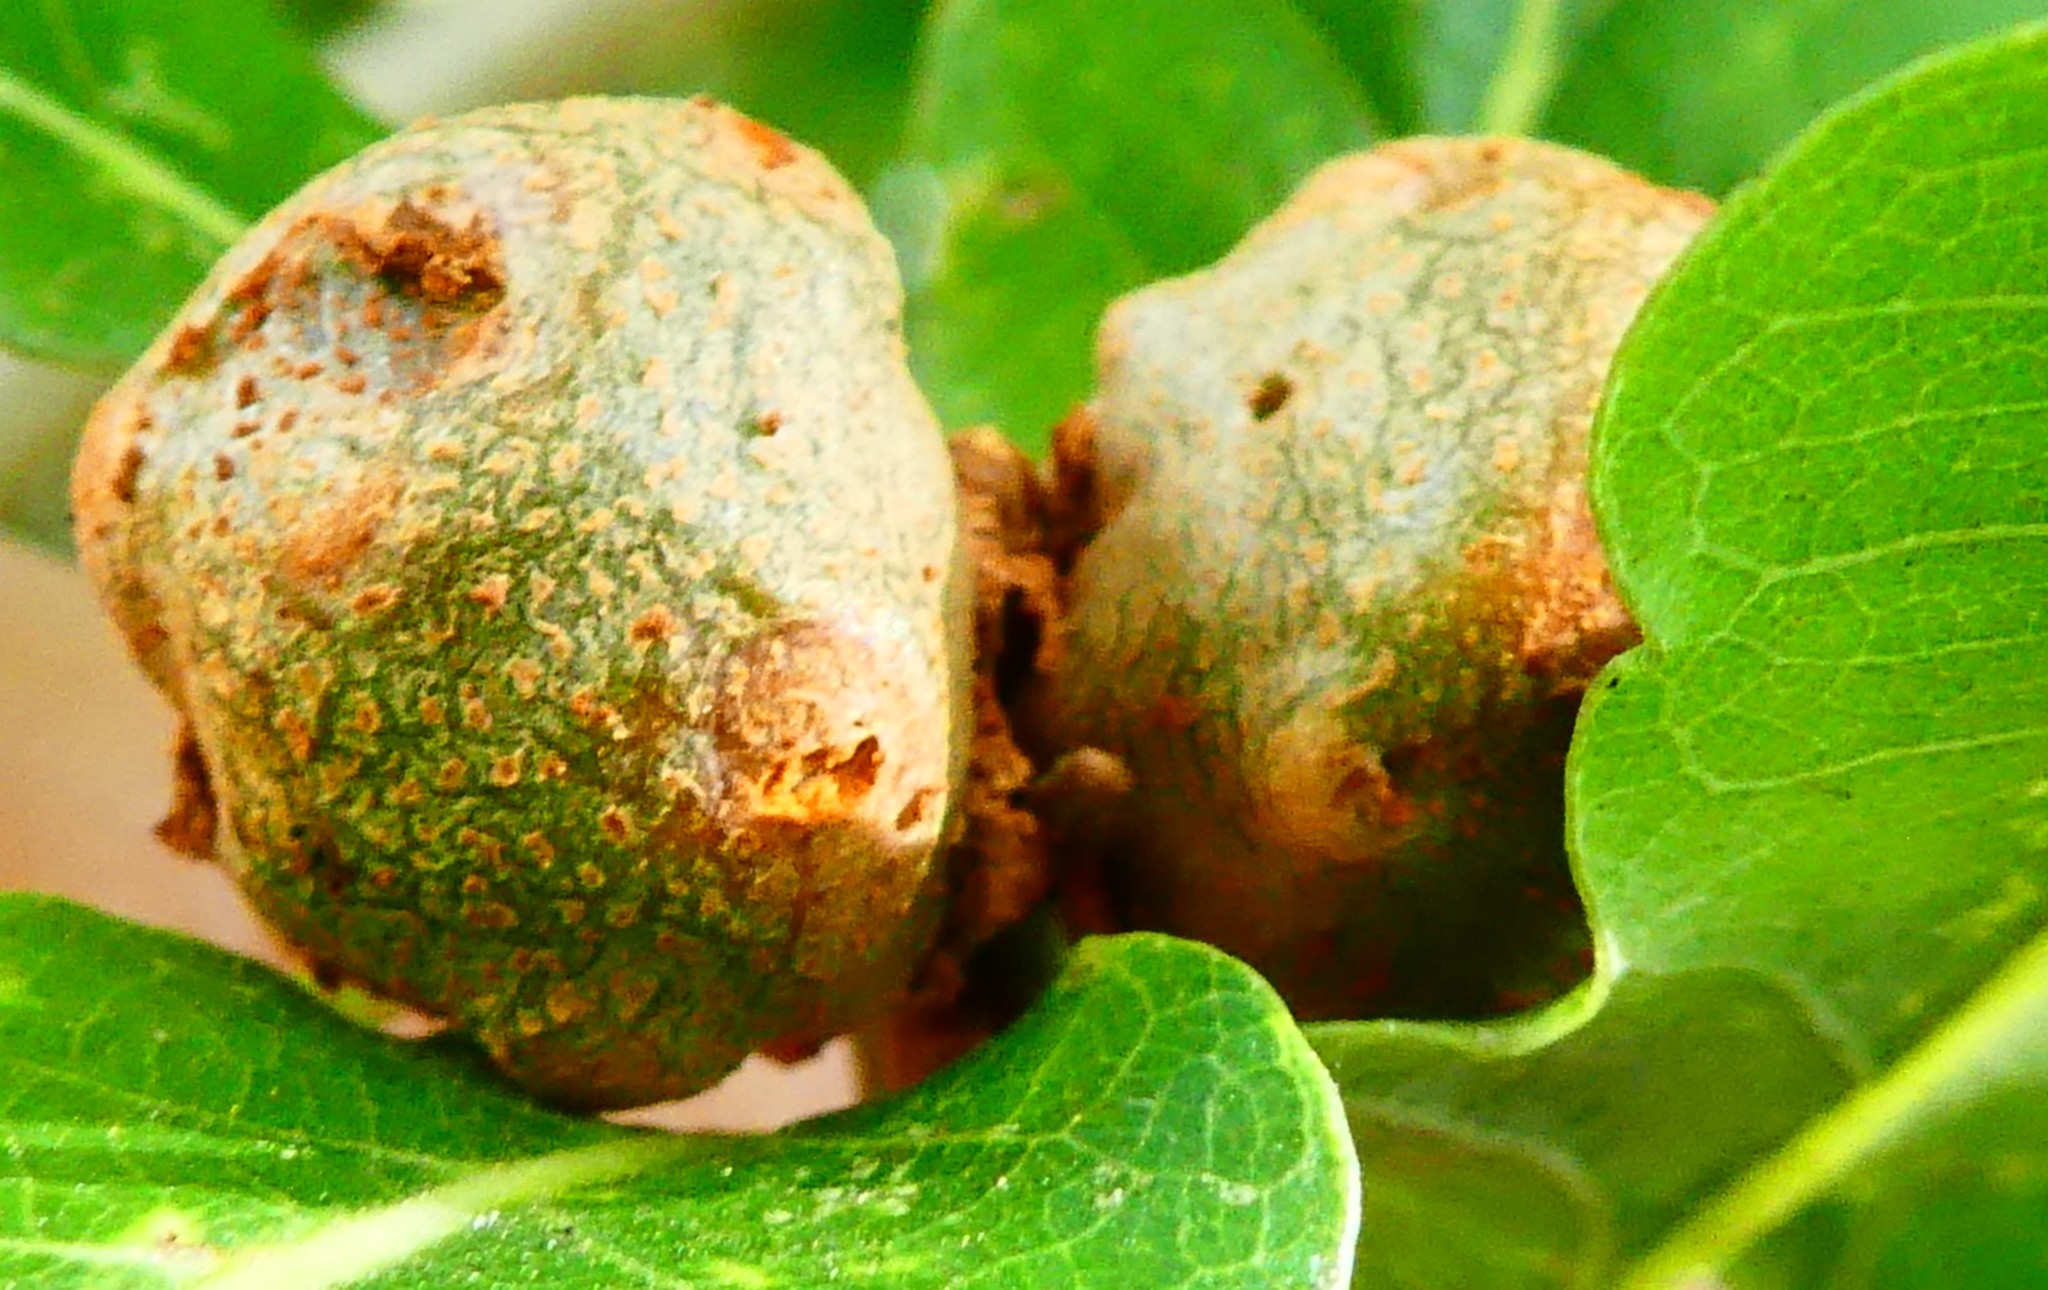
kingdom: Animalia
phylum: Arthropoda
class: Insecta
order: Hymenoptera
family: Cynipidae
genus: Andricus
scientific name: Andricus lignicolus
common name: Cola-nut gall
